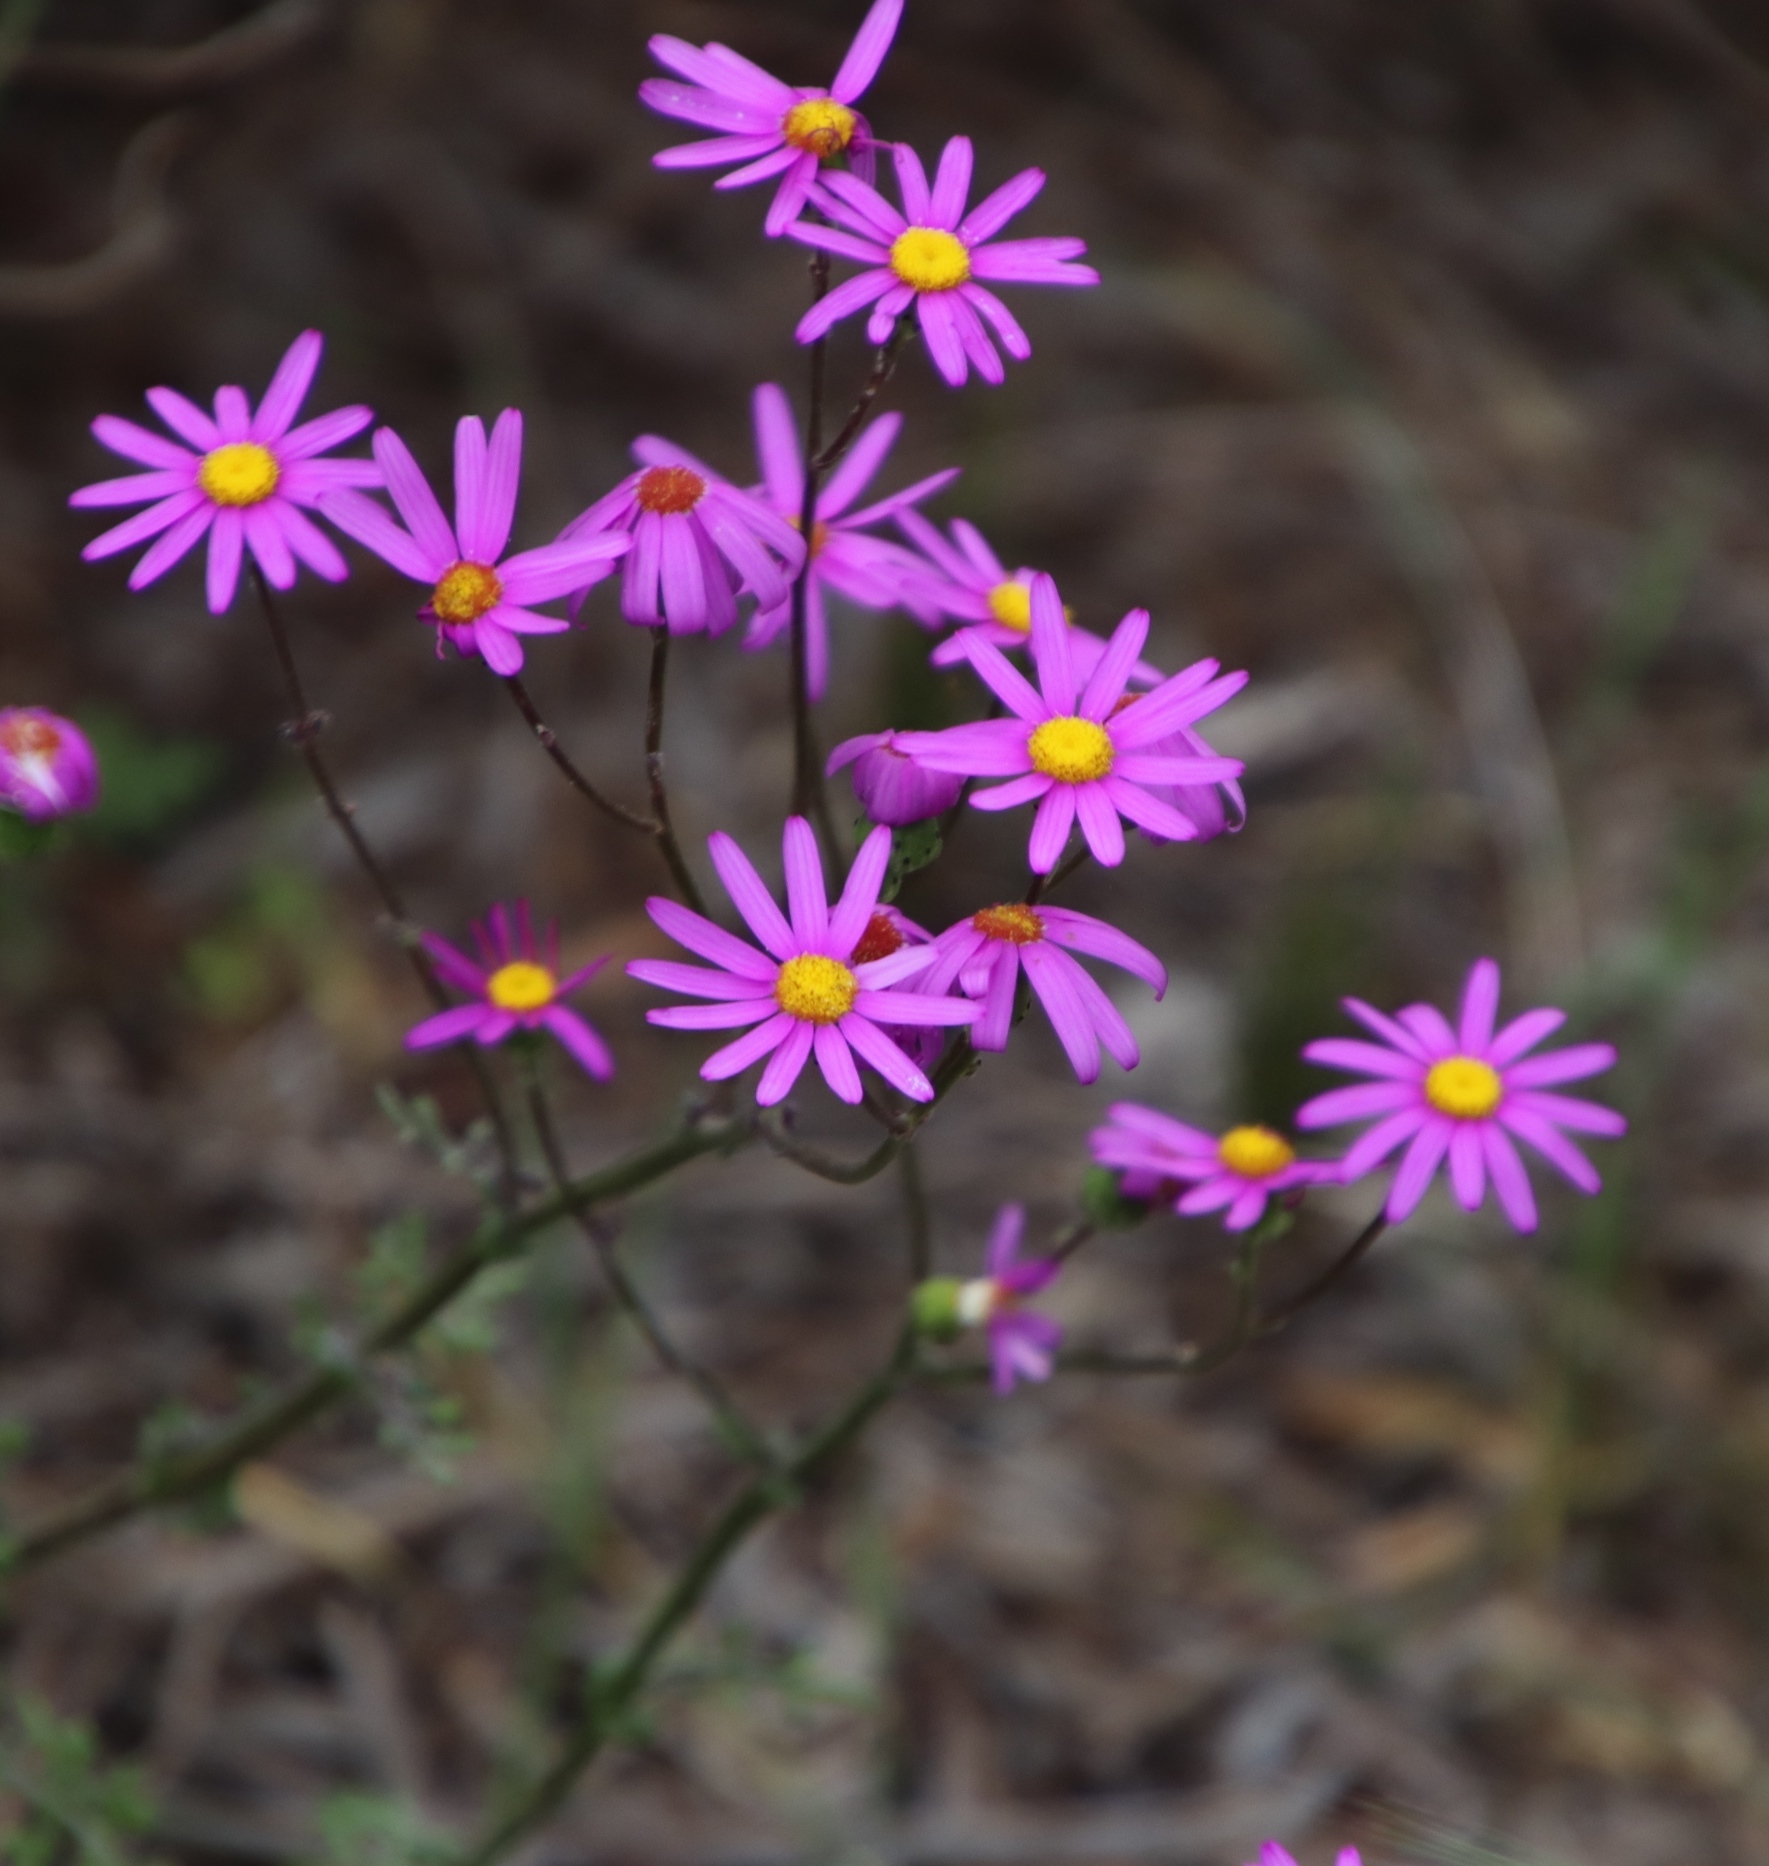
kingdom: Plantae
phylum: Tracheophyta
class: Magnoliopsida
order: Asterales
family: Asteraceae
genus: Senecio
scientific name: Senecio elegans
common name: Purple groundsel
